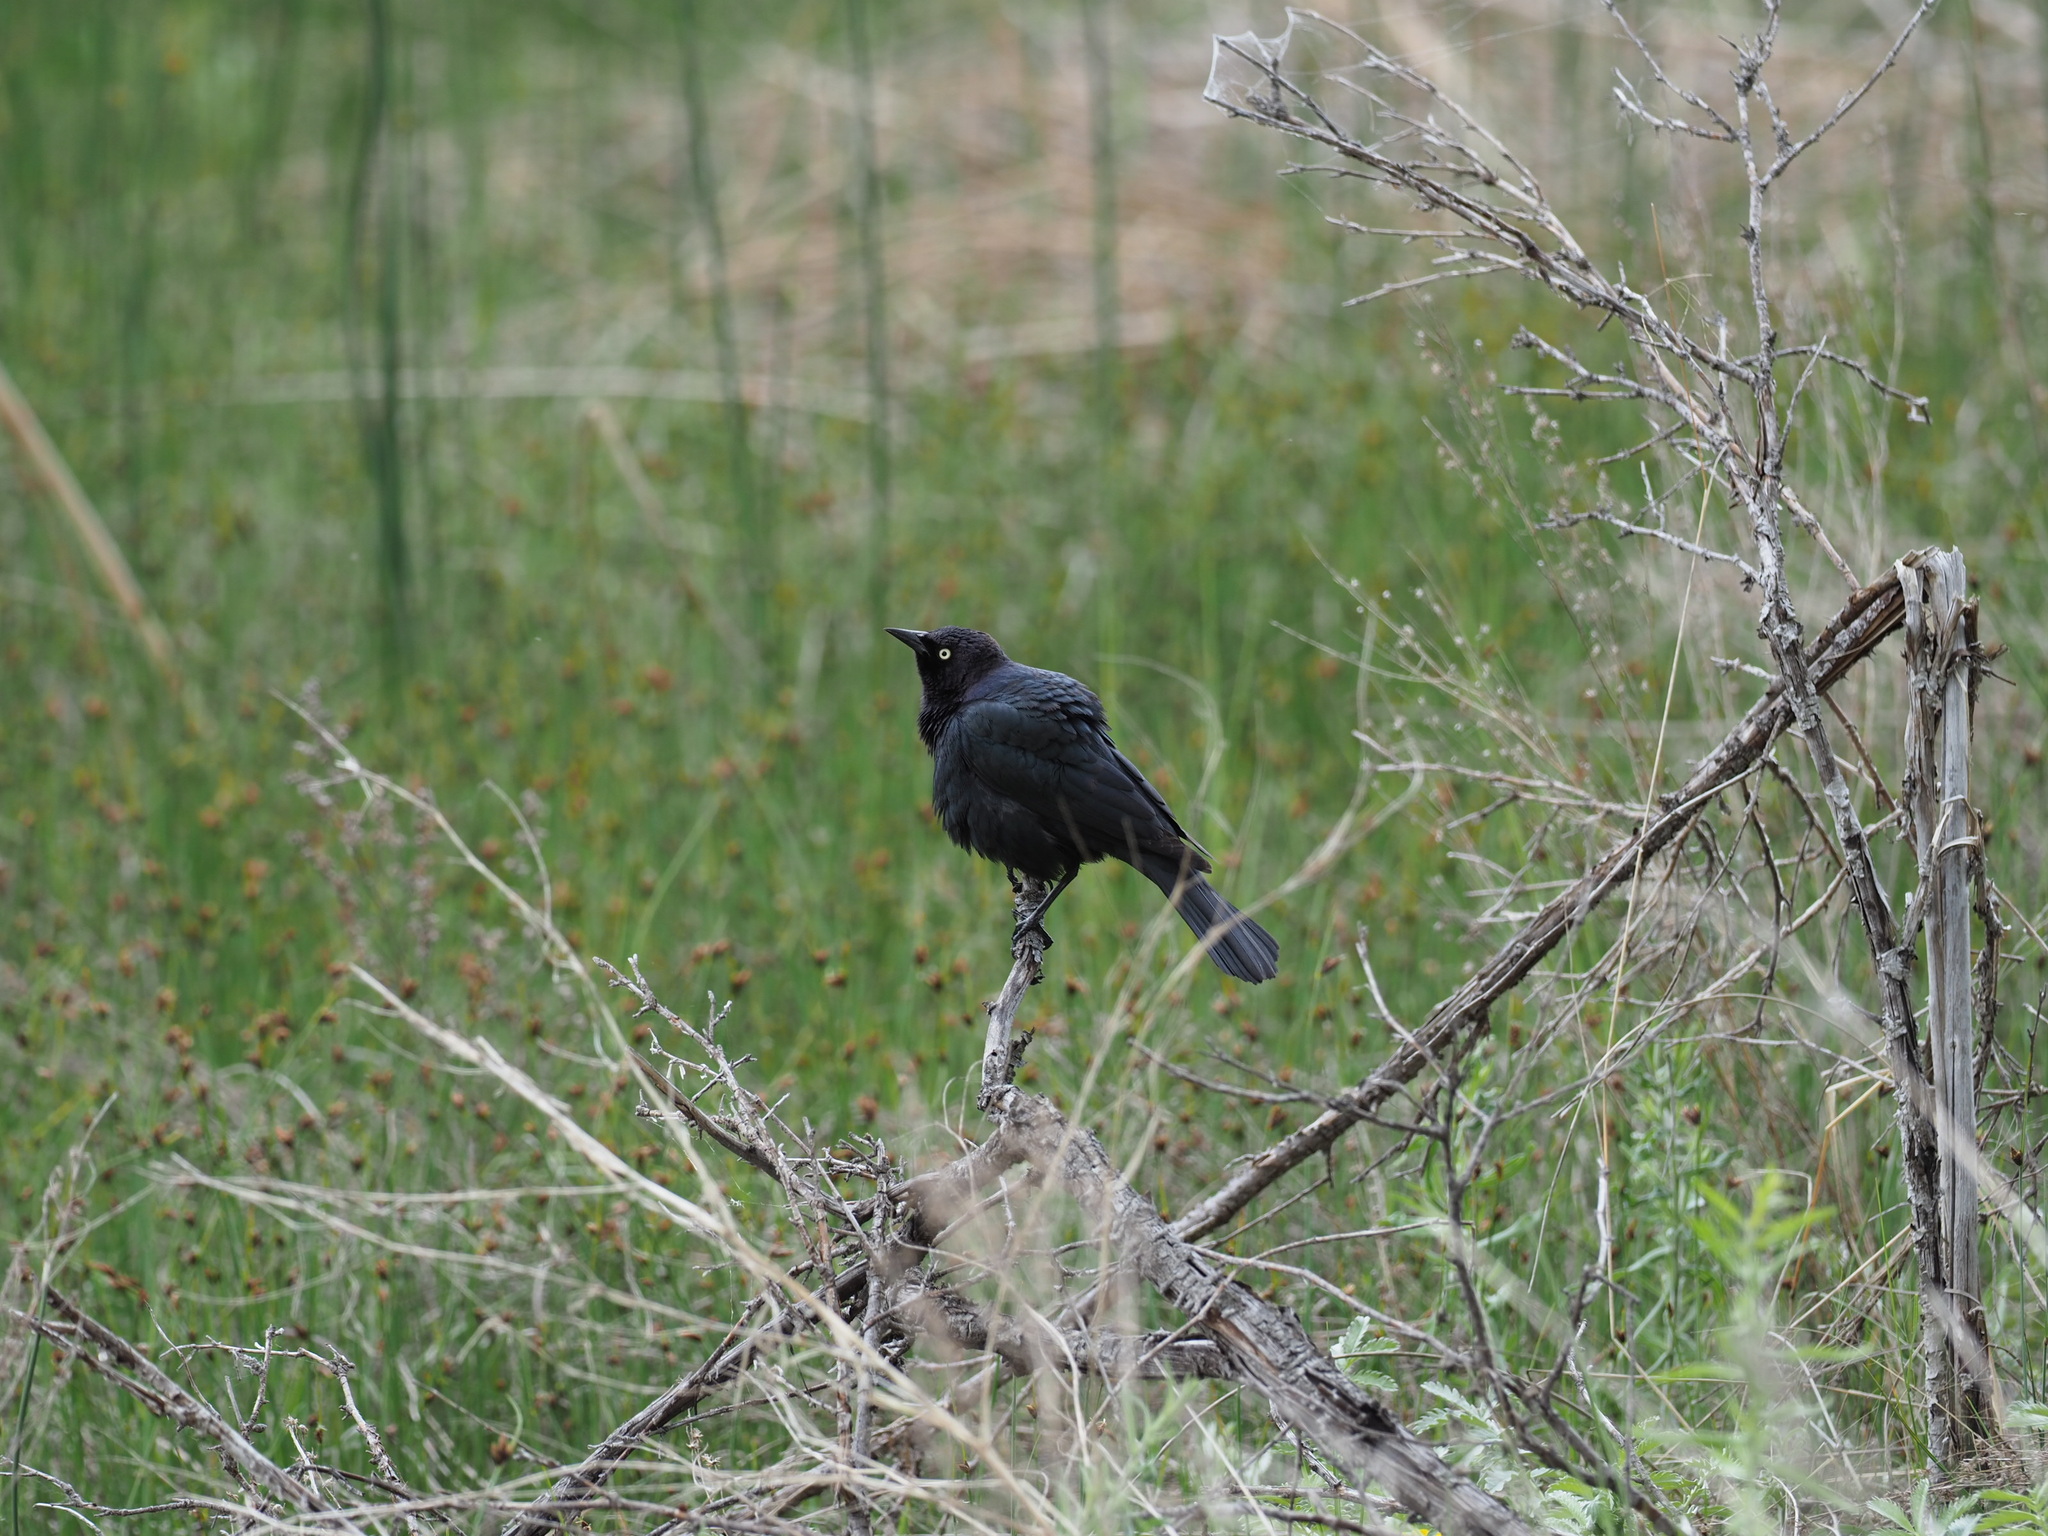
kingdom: Animalia
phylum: Chordata
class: Aves
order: Passeriformes
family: Icteridae
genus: Euphagus
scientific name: Euphagus cyanocephalus
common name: Brewer's blackbird
